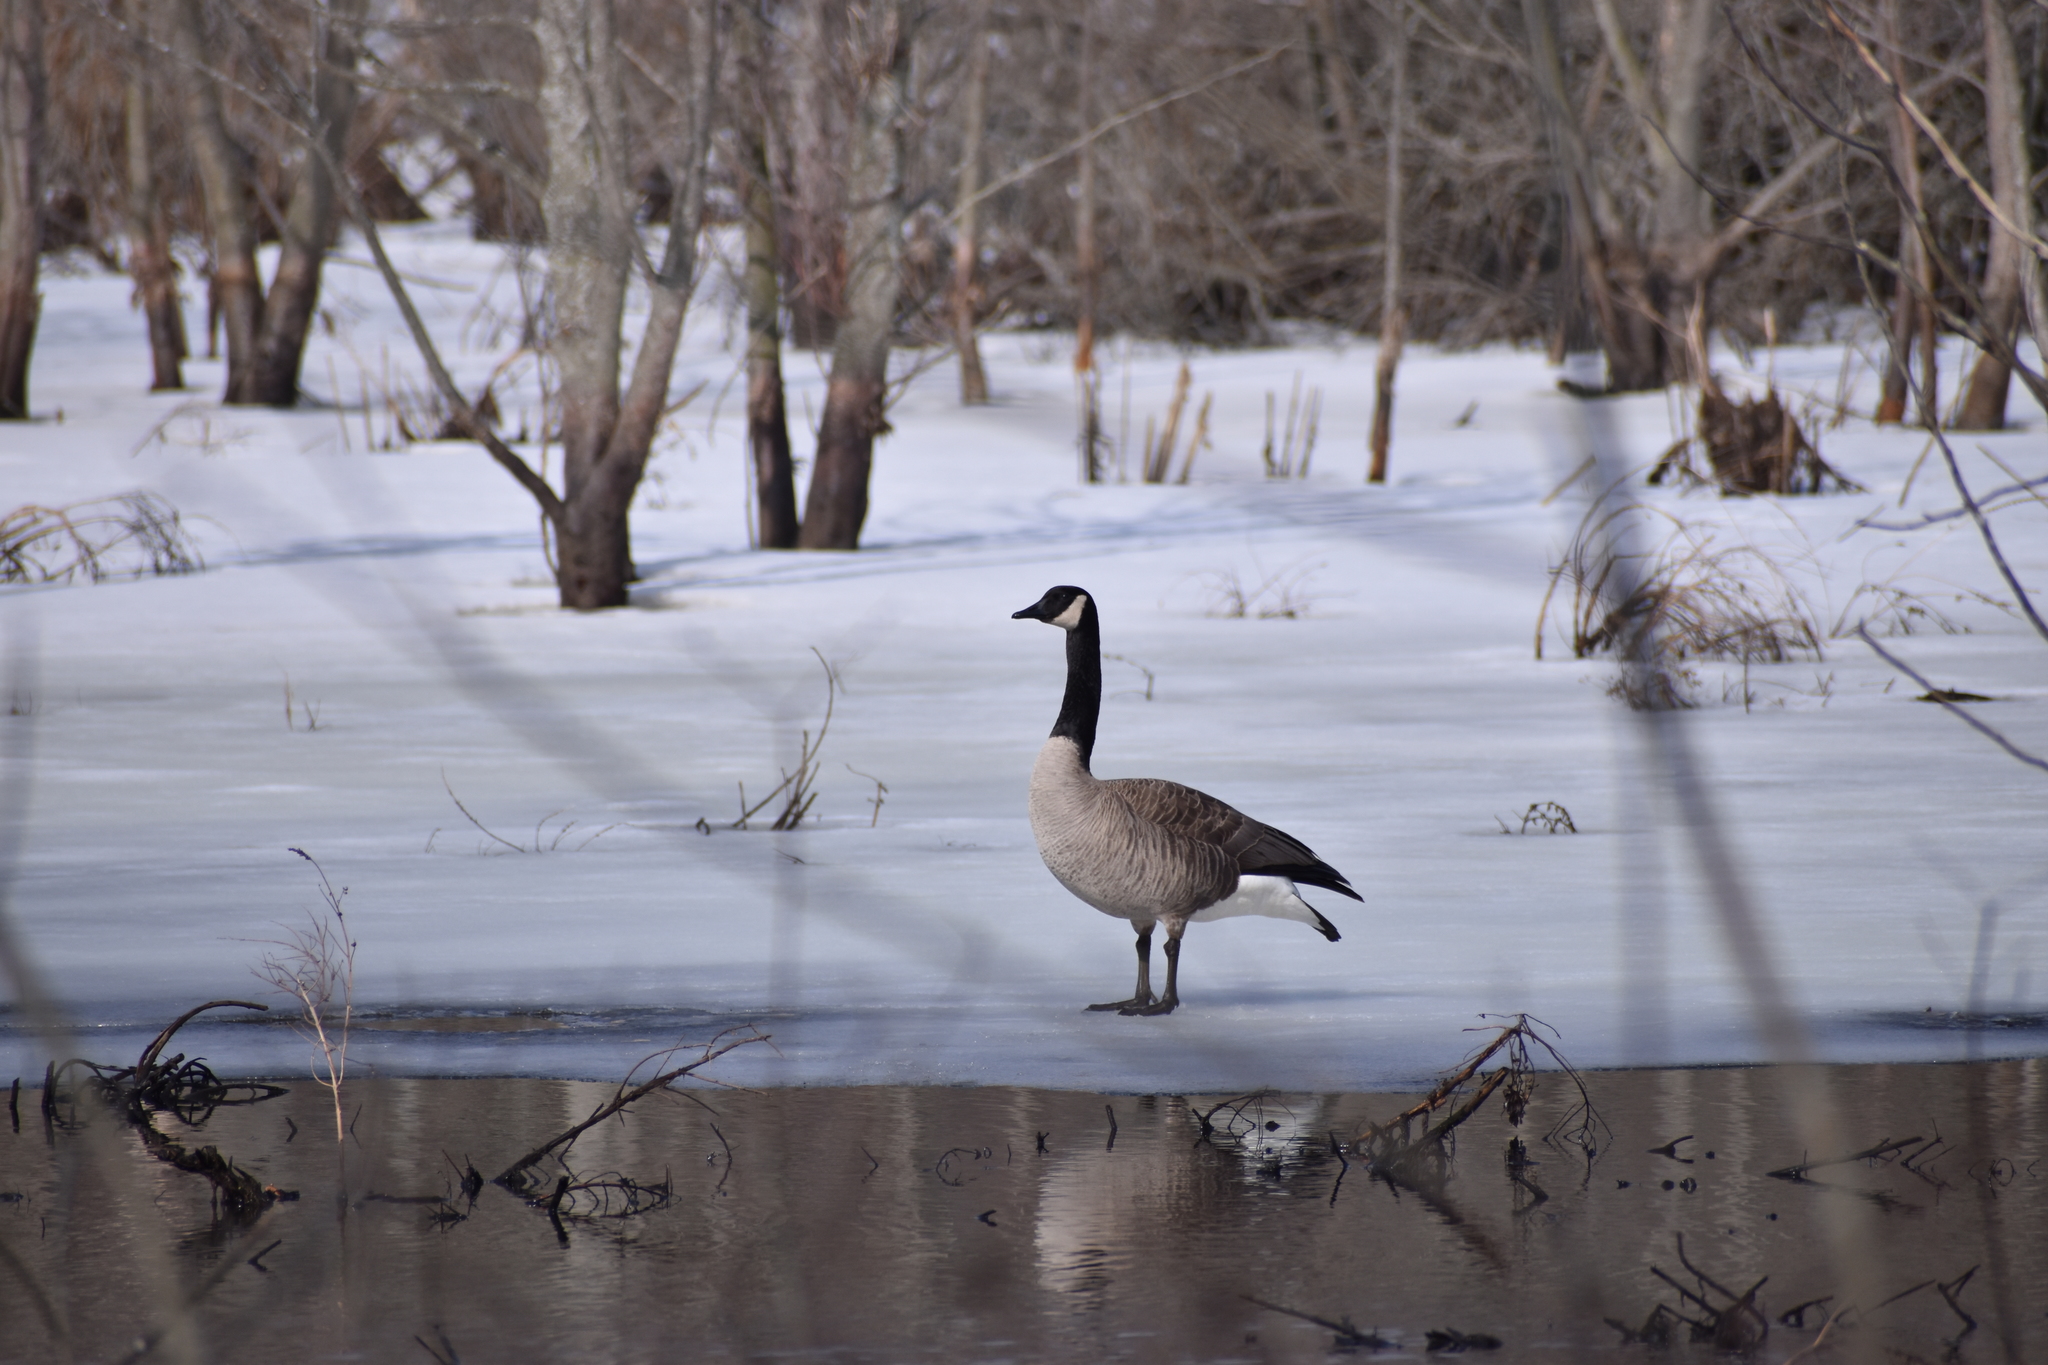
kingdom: Animalia
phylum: Chordata
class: Aves
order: Anseriformes
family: Anatidae
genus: Branta
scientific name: Branta canadensis
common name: Canada goose
